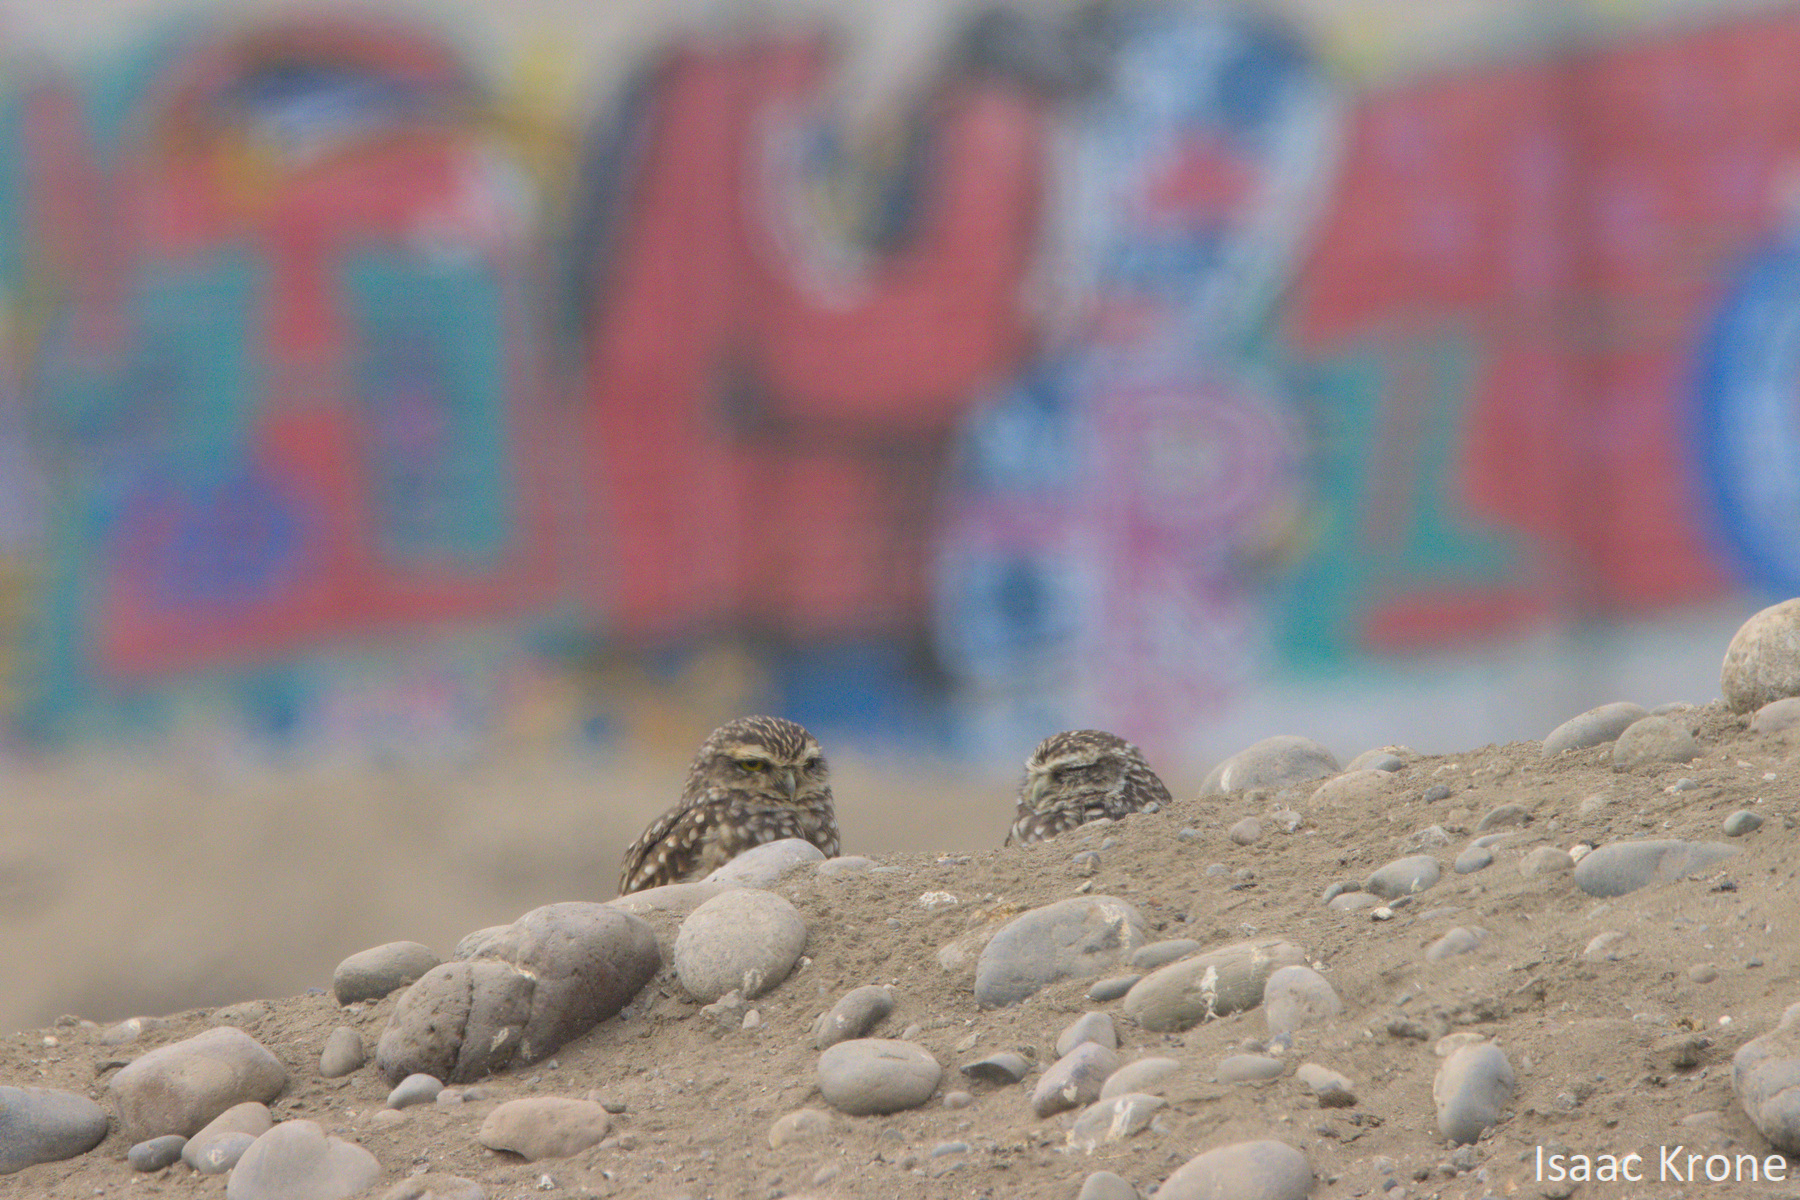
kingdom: Animalia
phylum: Chordata
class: Aves
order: Strigiformes
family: Strigidae
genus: Athene
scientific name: Athene cunicularia
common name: Burrowing owl
